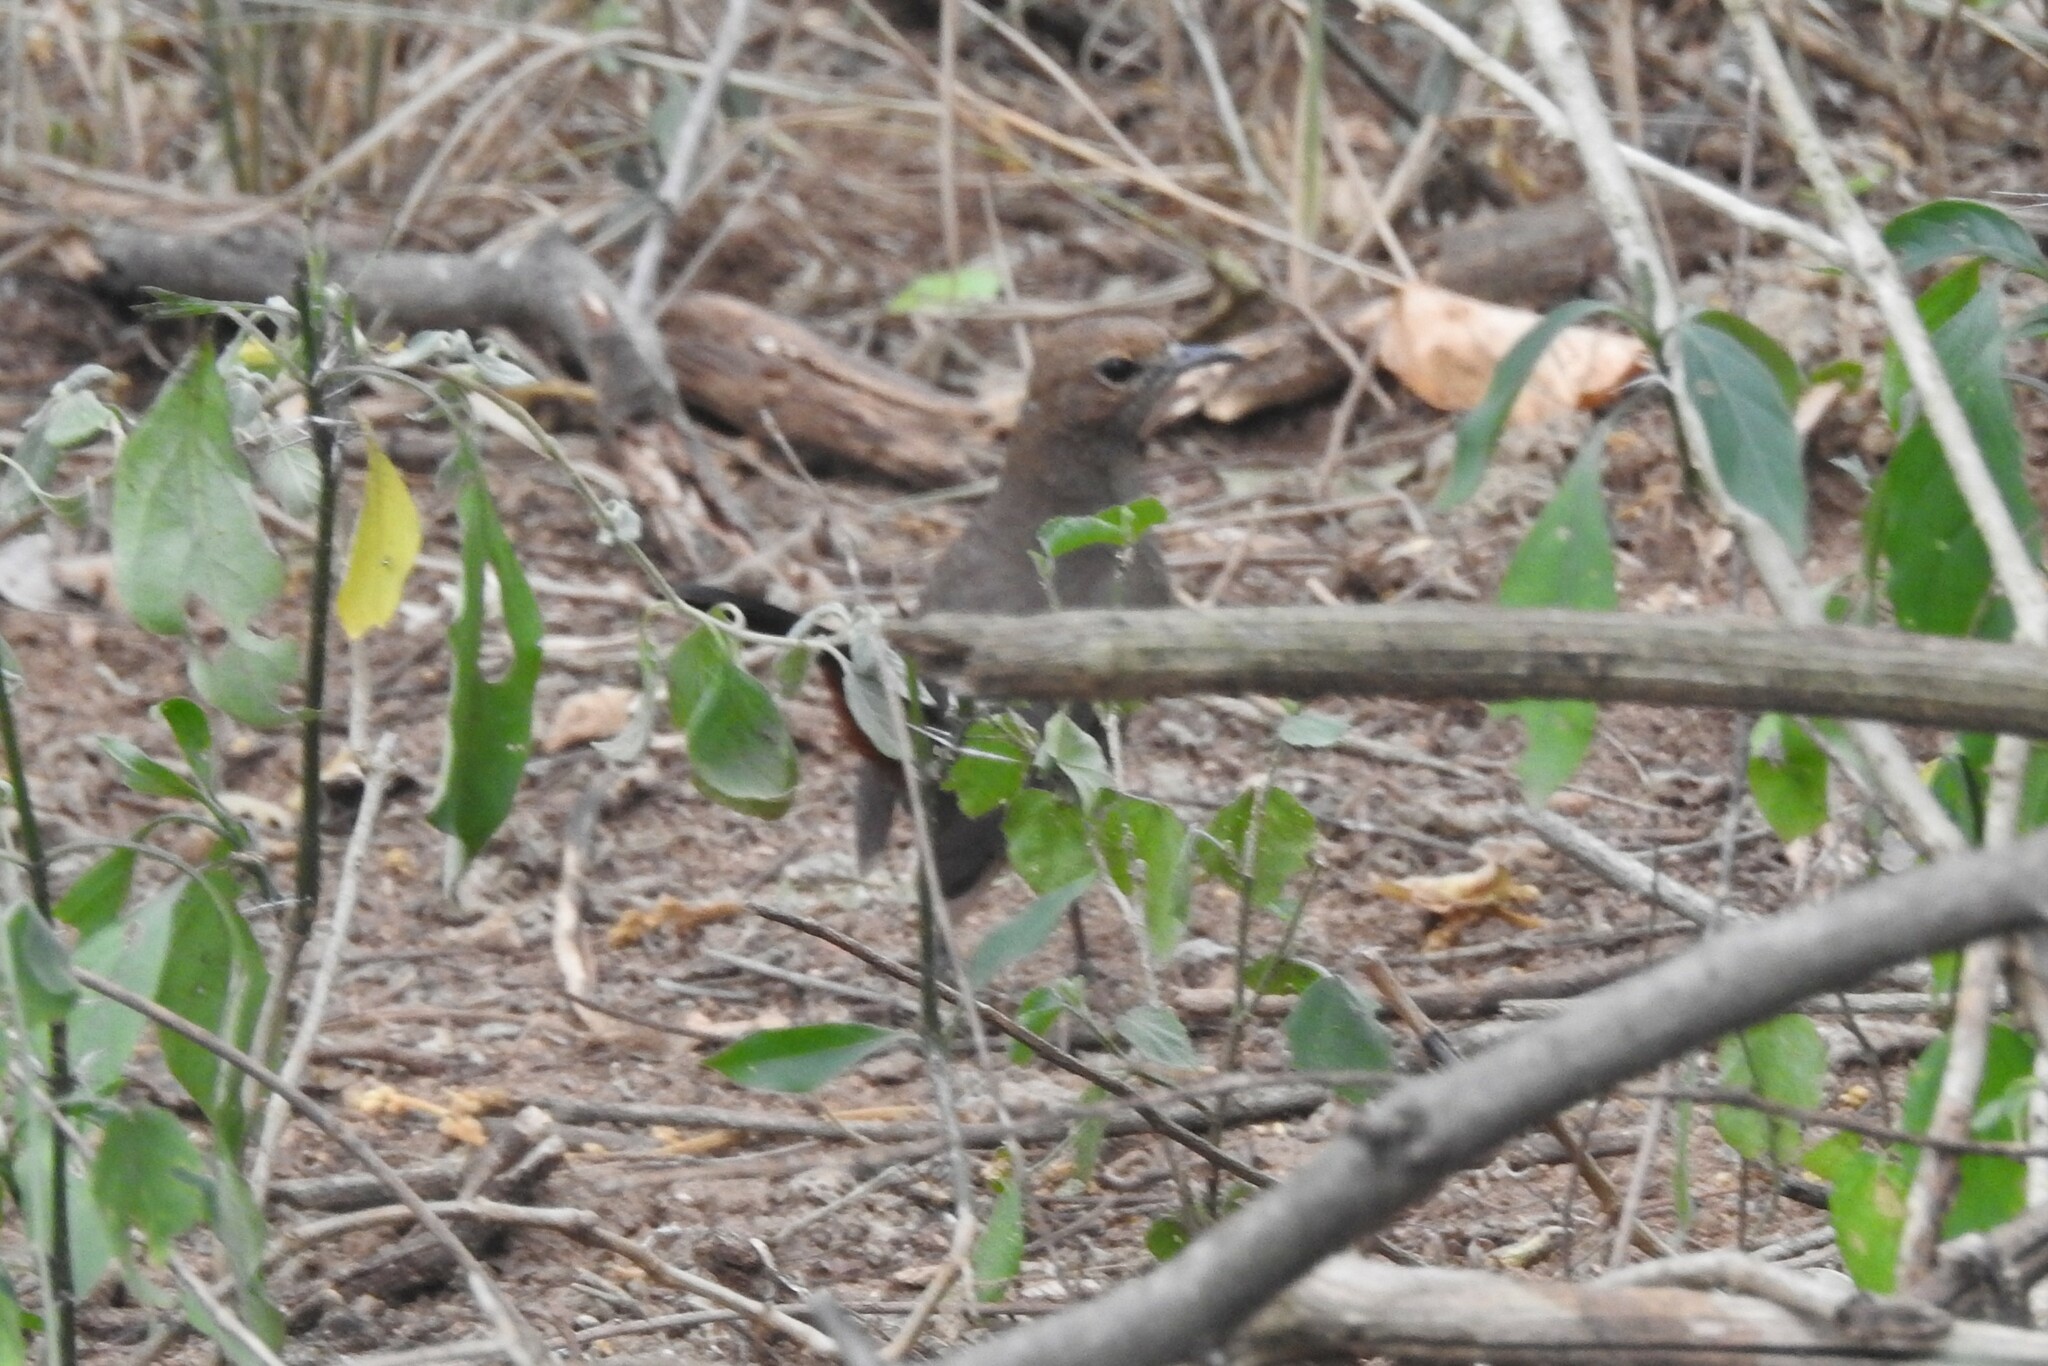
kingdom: Animalia
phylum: Chordata
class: Aves
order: Passeriformes
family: Muscicapidae
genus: Saxicoloides
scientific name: Saxicoloides fulicatus
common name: Indian robin
